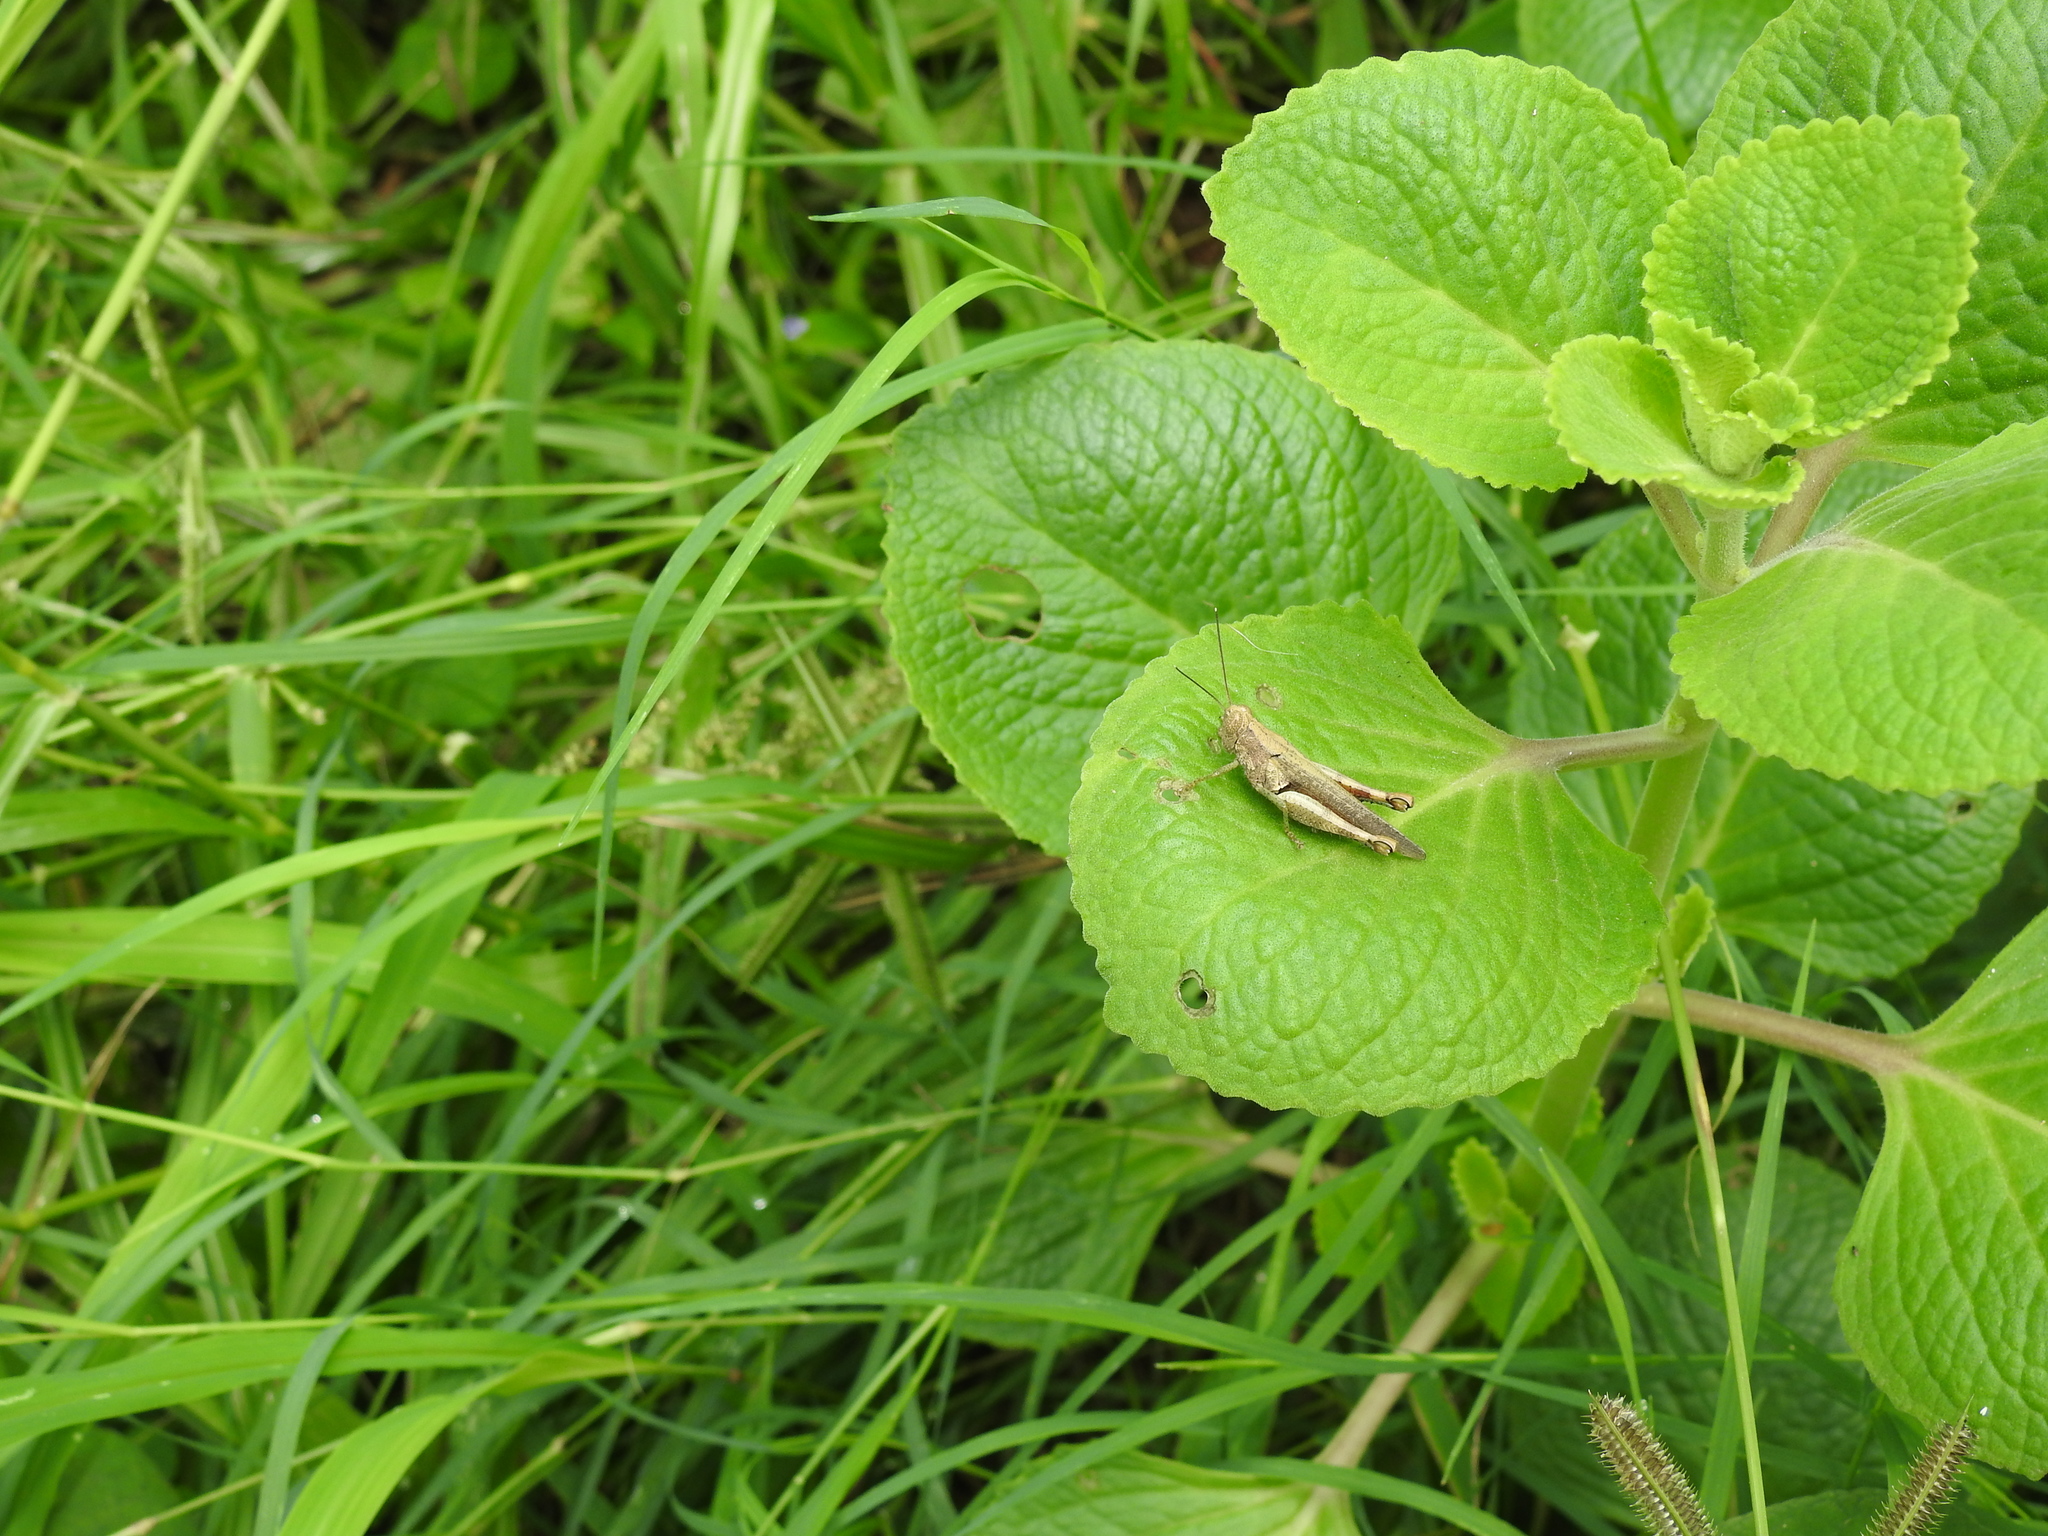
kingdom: Animalia
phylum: Arthropoda
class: Insecta
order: Orthoptera
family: Acrididae
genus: Pirithoicus
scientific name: Pirithoicus ophthalmicus
